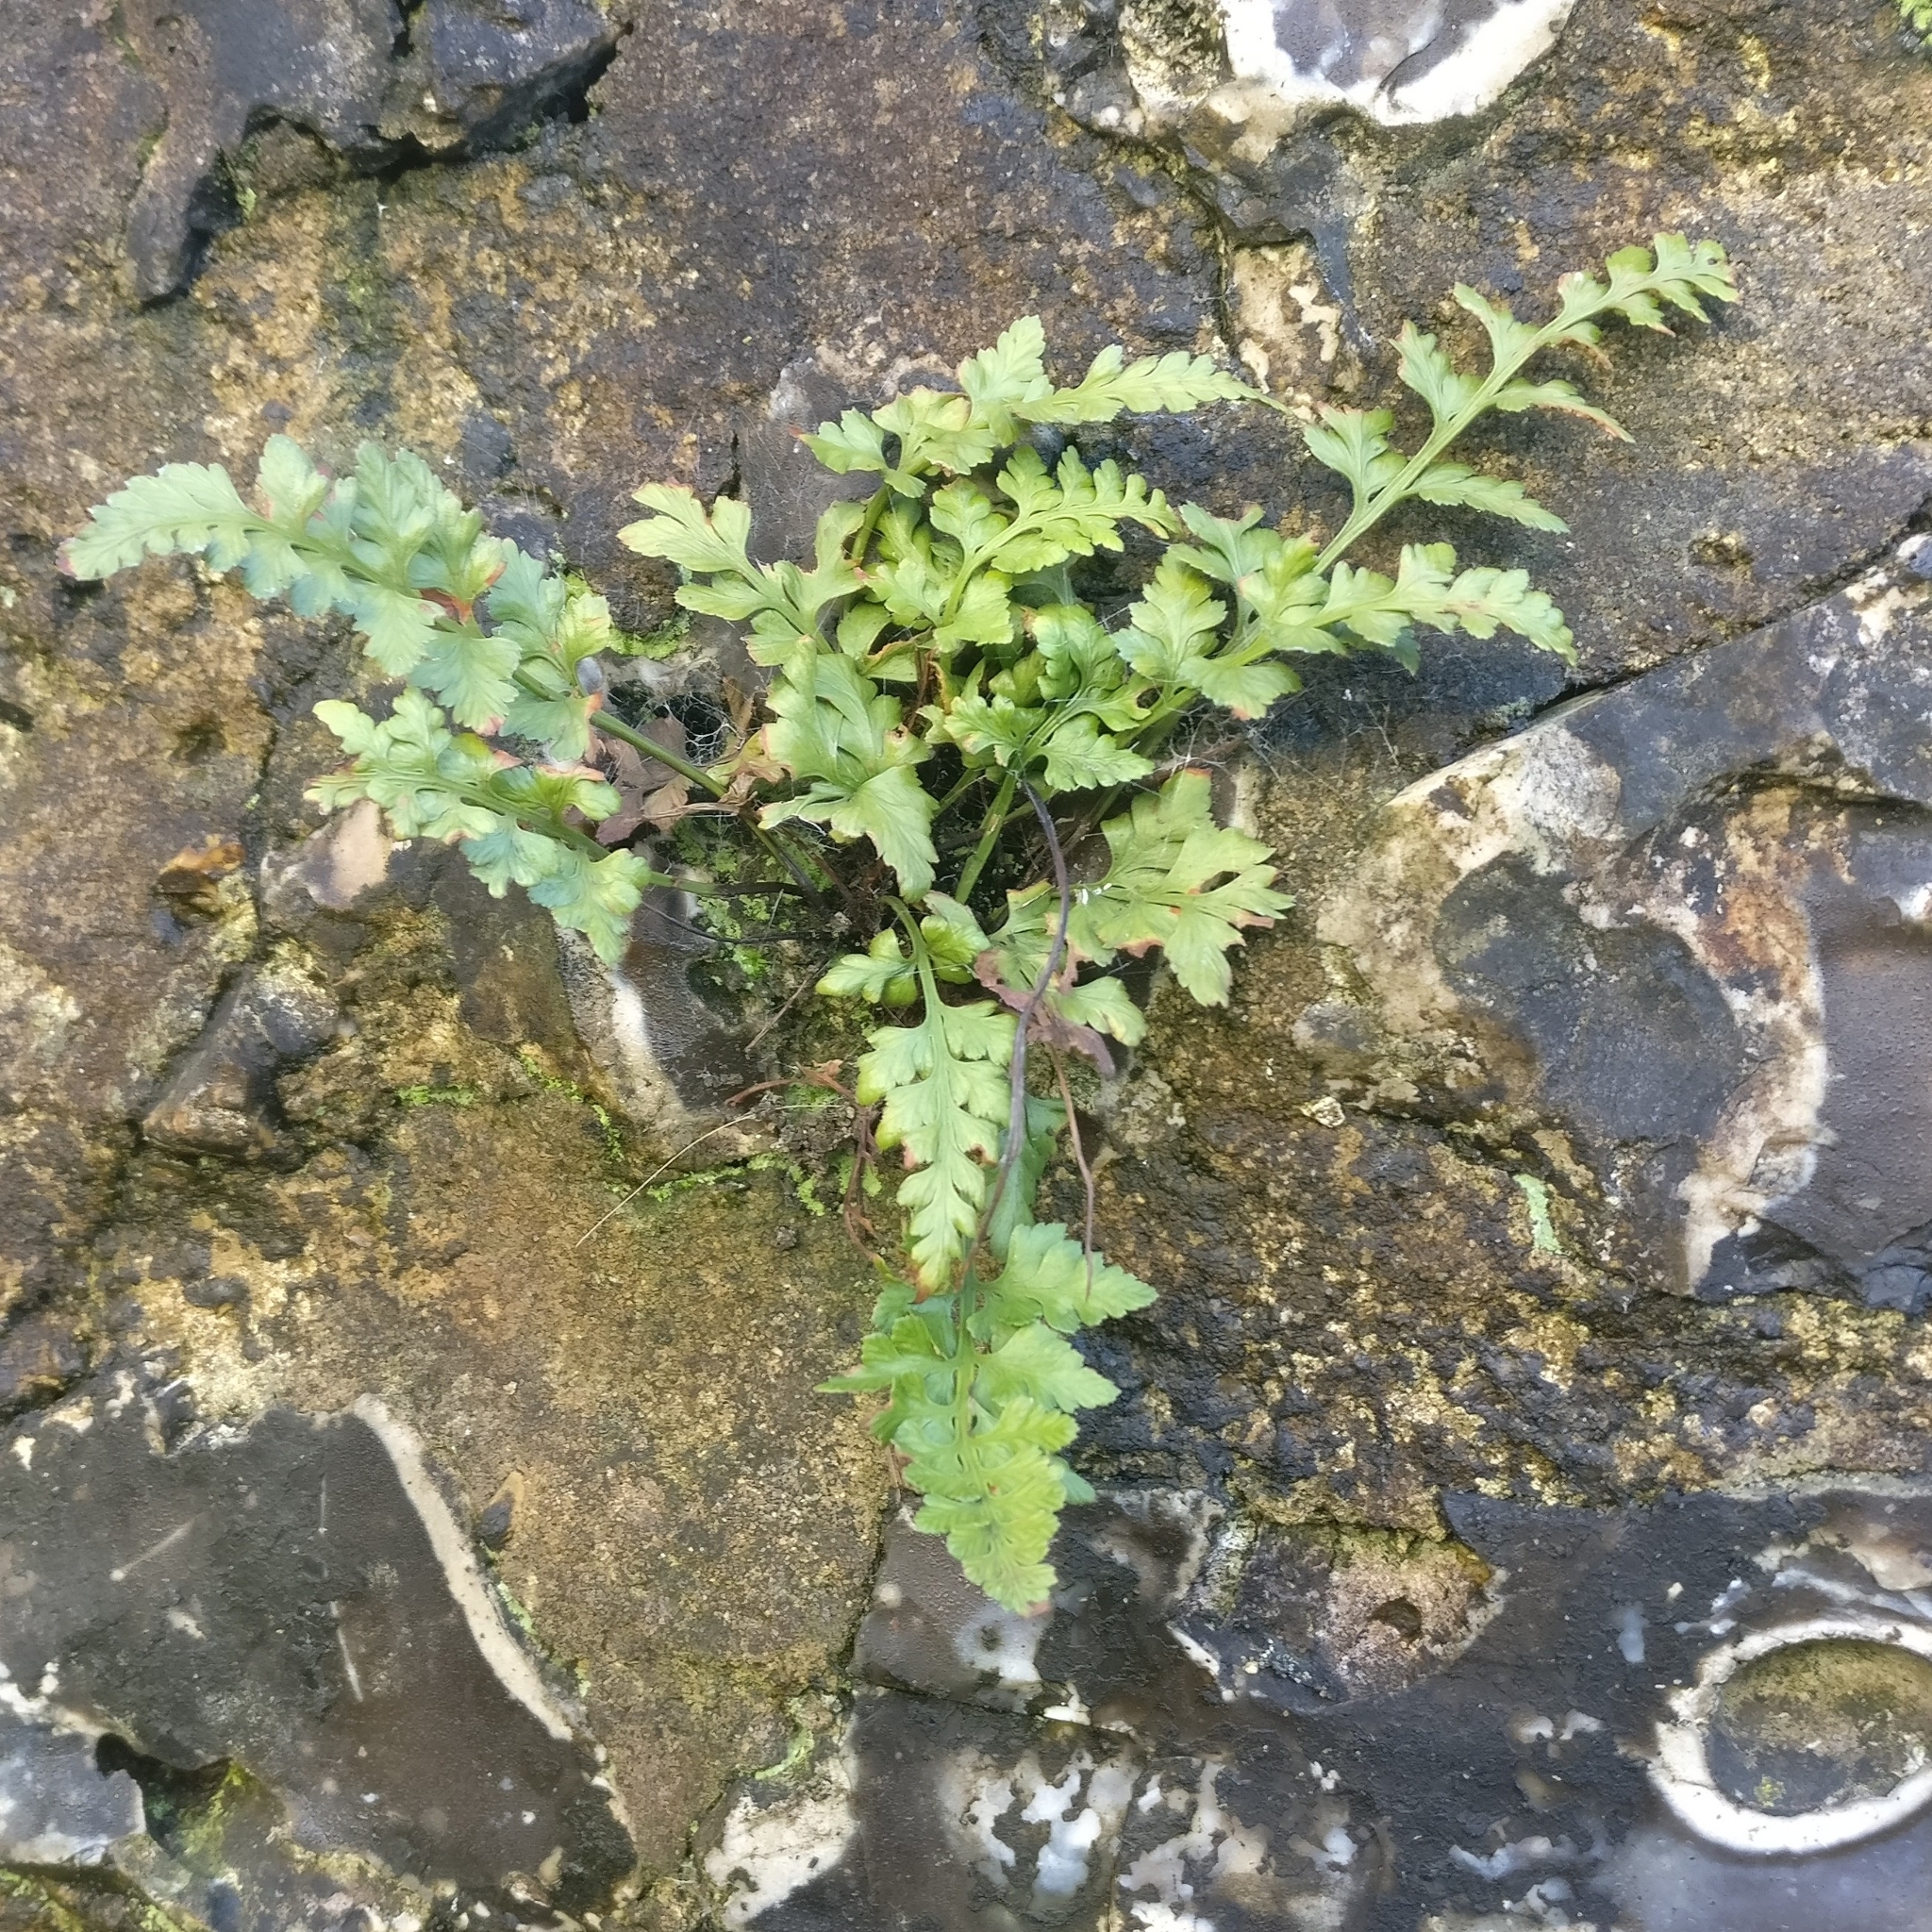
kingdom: Plantae
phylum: Tracheophyta
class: Polypodiopsida
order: Polypodiales
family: Aspleniaceae
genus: Asplenium
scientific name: Asplenium adiantum-nigrum
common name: Black spleenwort
